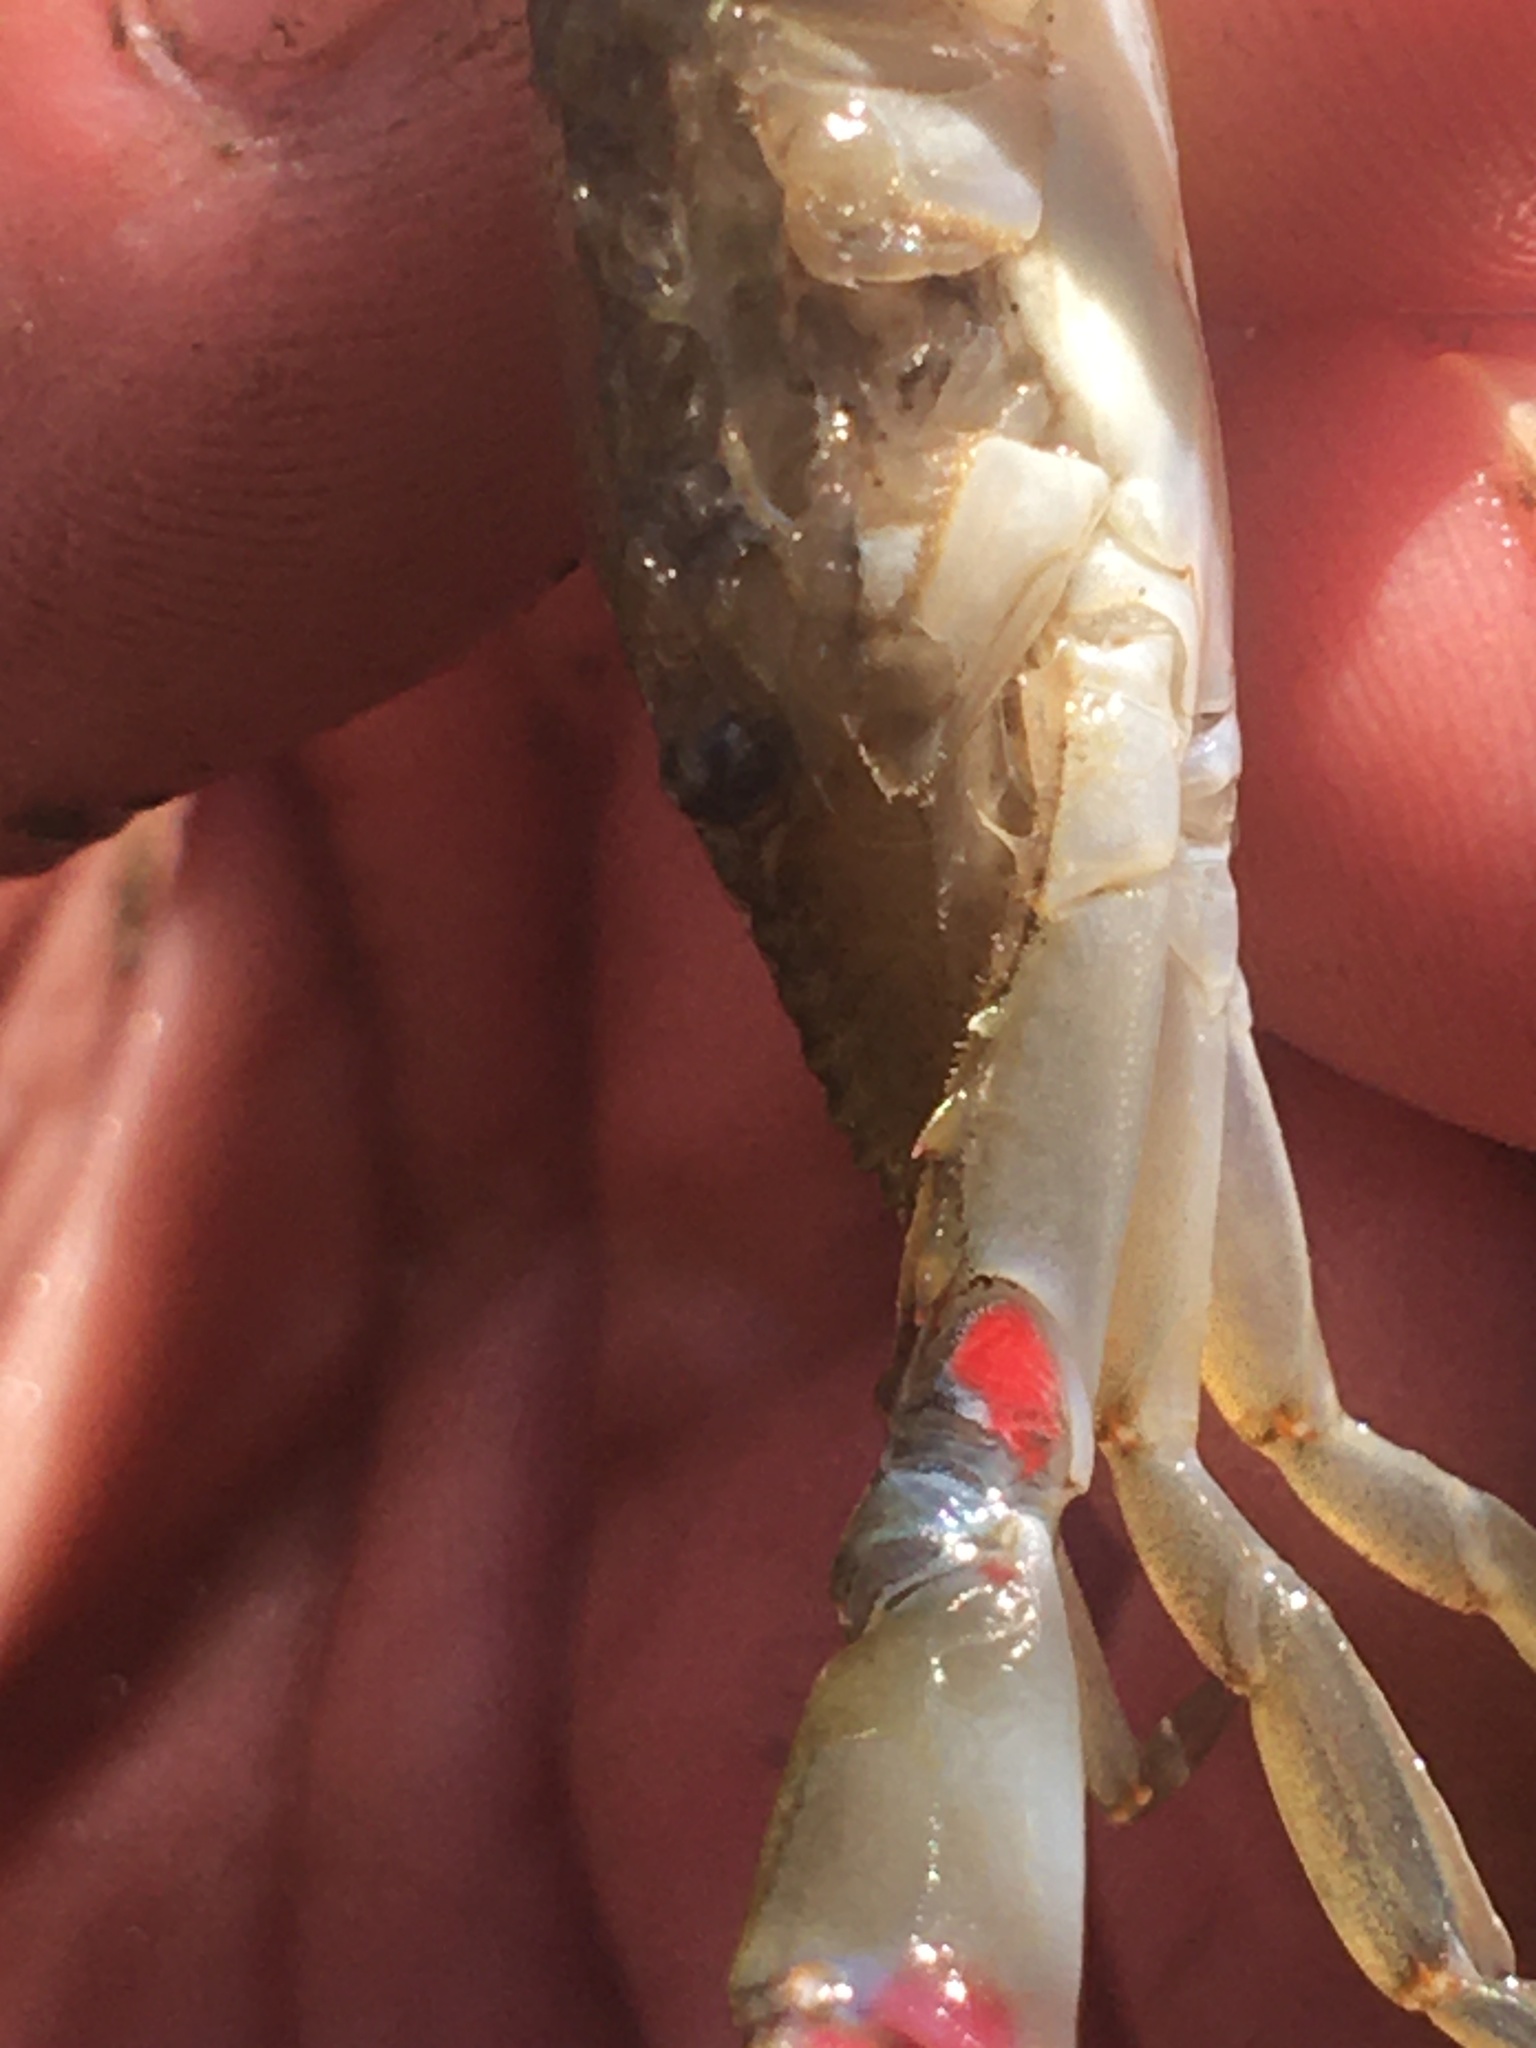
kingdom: Animalia
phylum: Arthropoda
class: Malacostraca
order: Decapoda
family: Portunidae
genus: Callinectes
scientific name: Callinectes sapidus
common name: Blue crab
